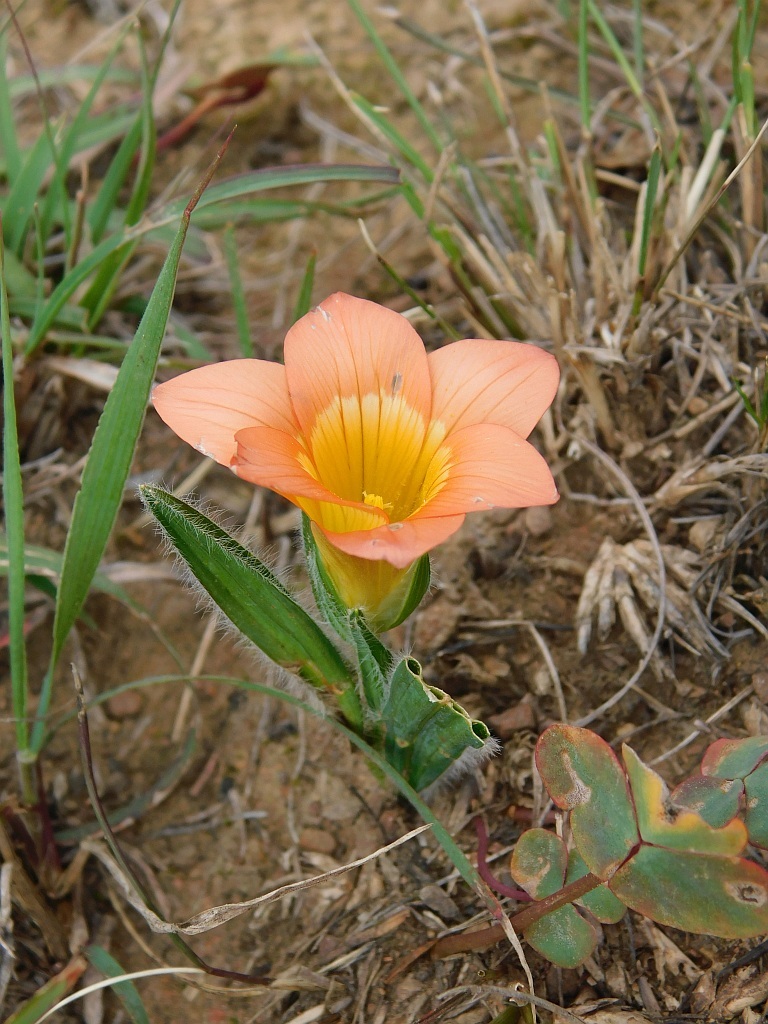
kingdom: Plantae
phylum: Tracheophyta
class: Liliopsida
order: Asparagales
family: Iridaceae
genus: Romulea
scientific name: Romulea pilosa
